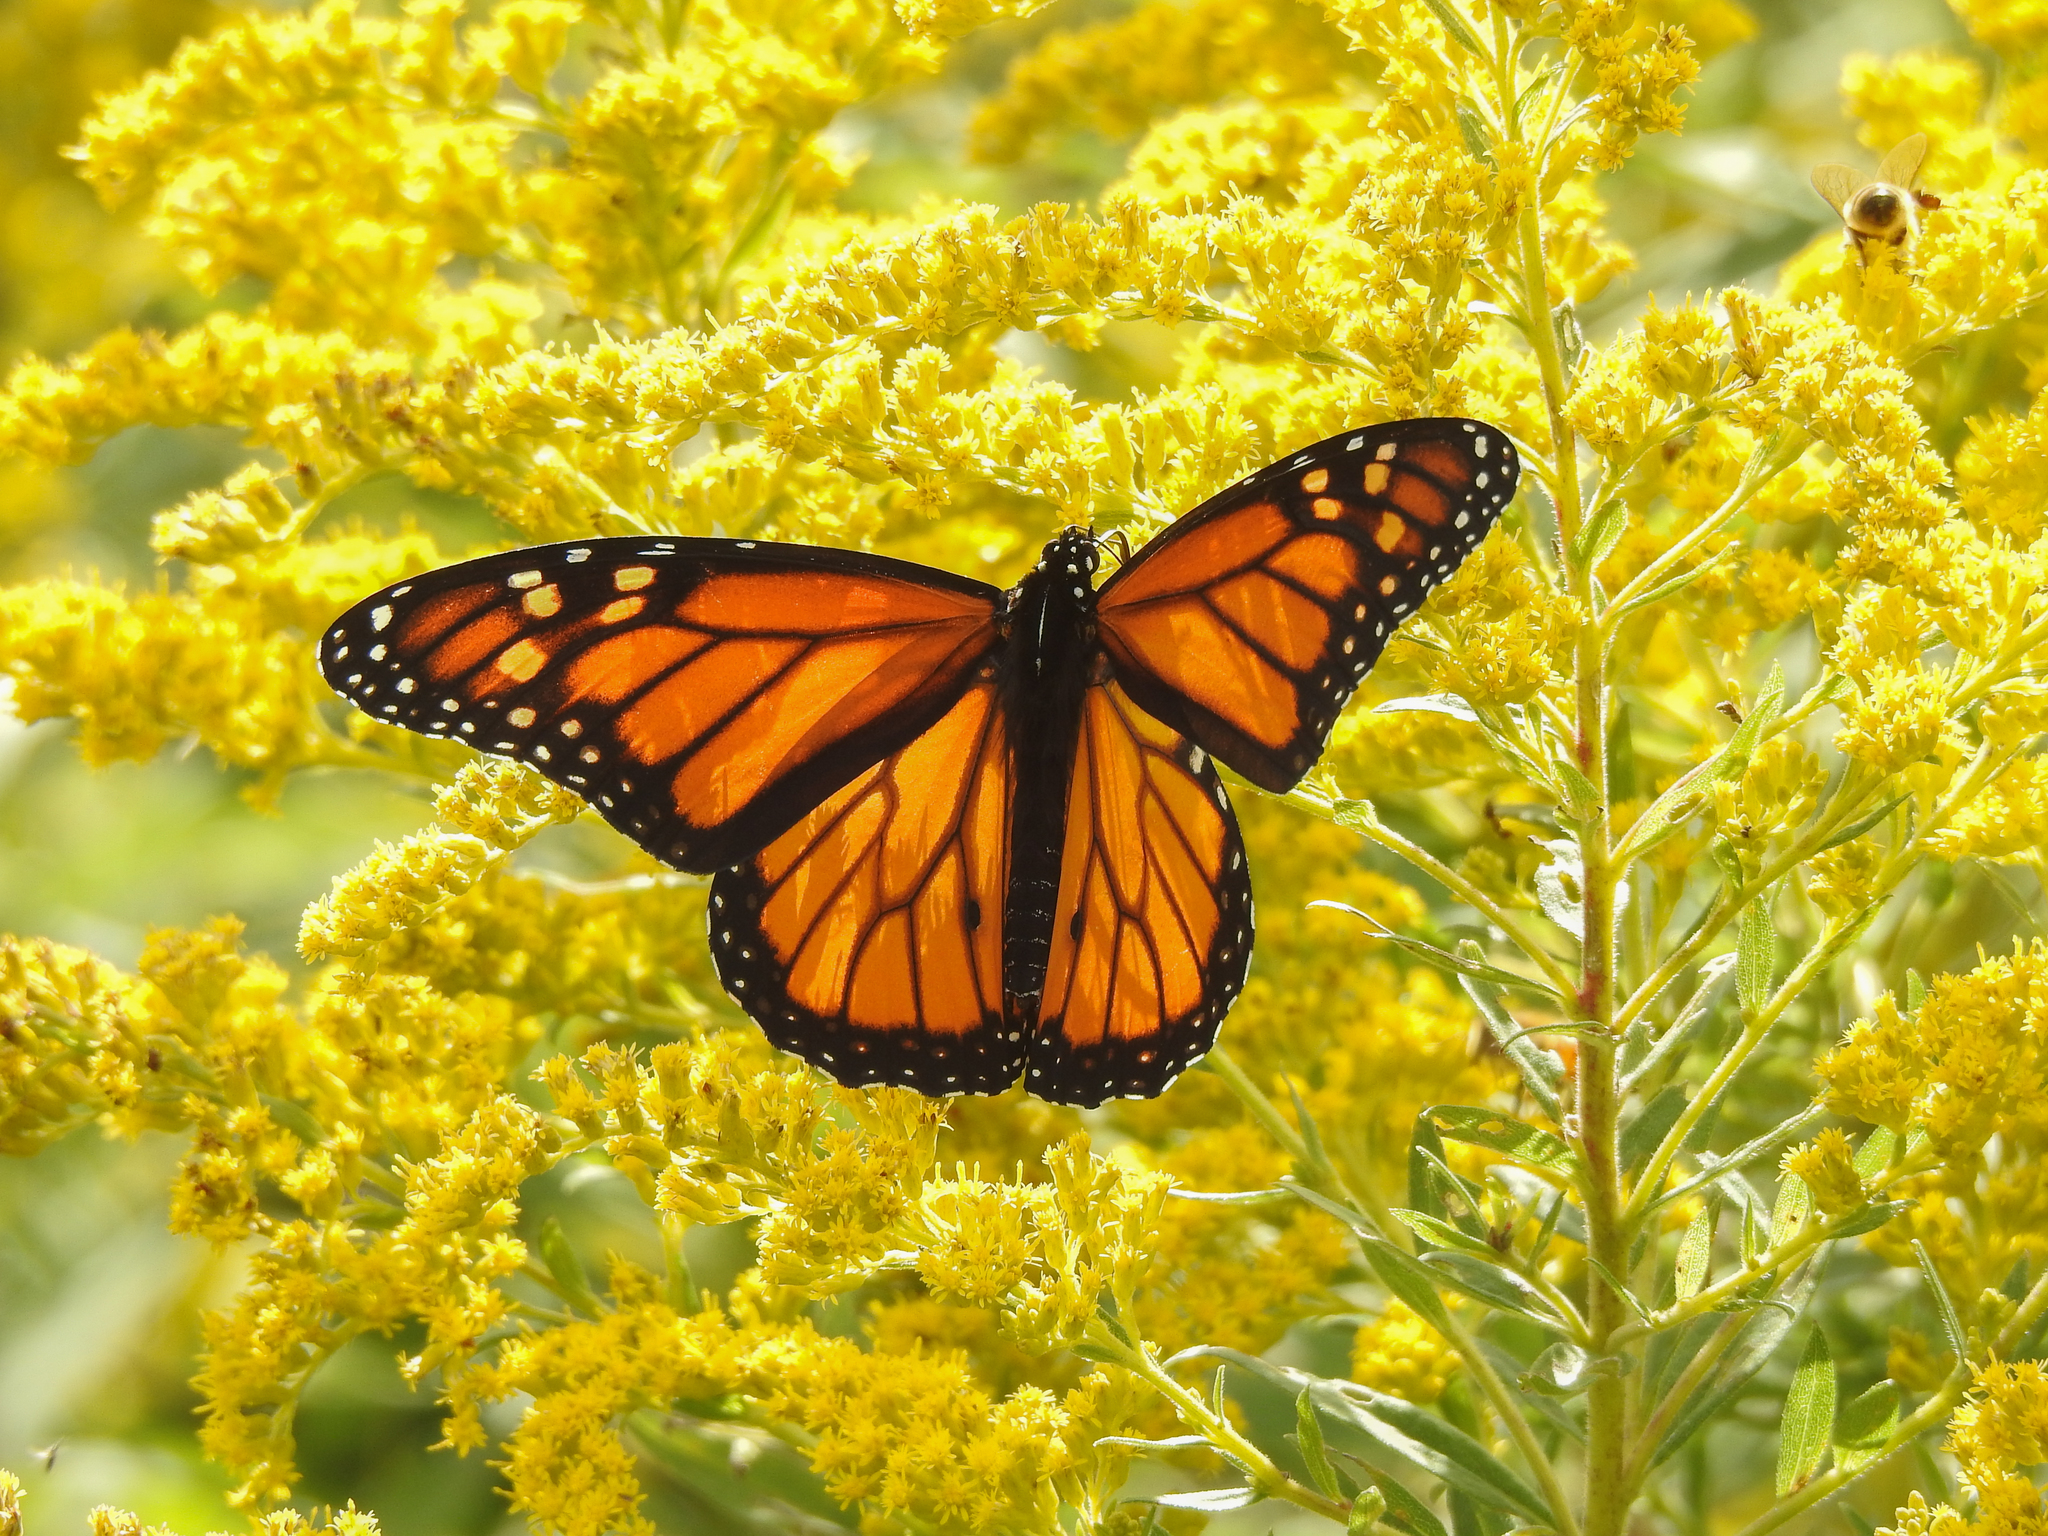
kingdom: Animalia
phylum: Arthropoda
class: Insecta
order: Lepidoptera
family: Nymphalidae
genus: Danaus
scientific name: Danaus plexippus
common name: Monarch
